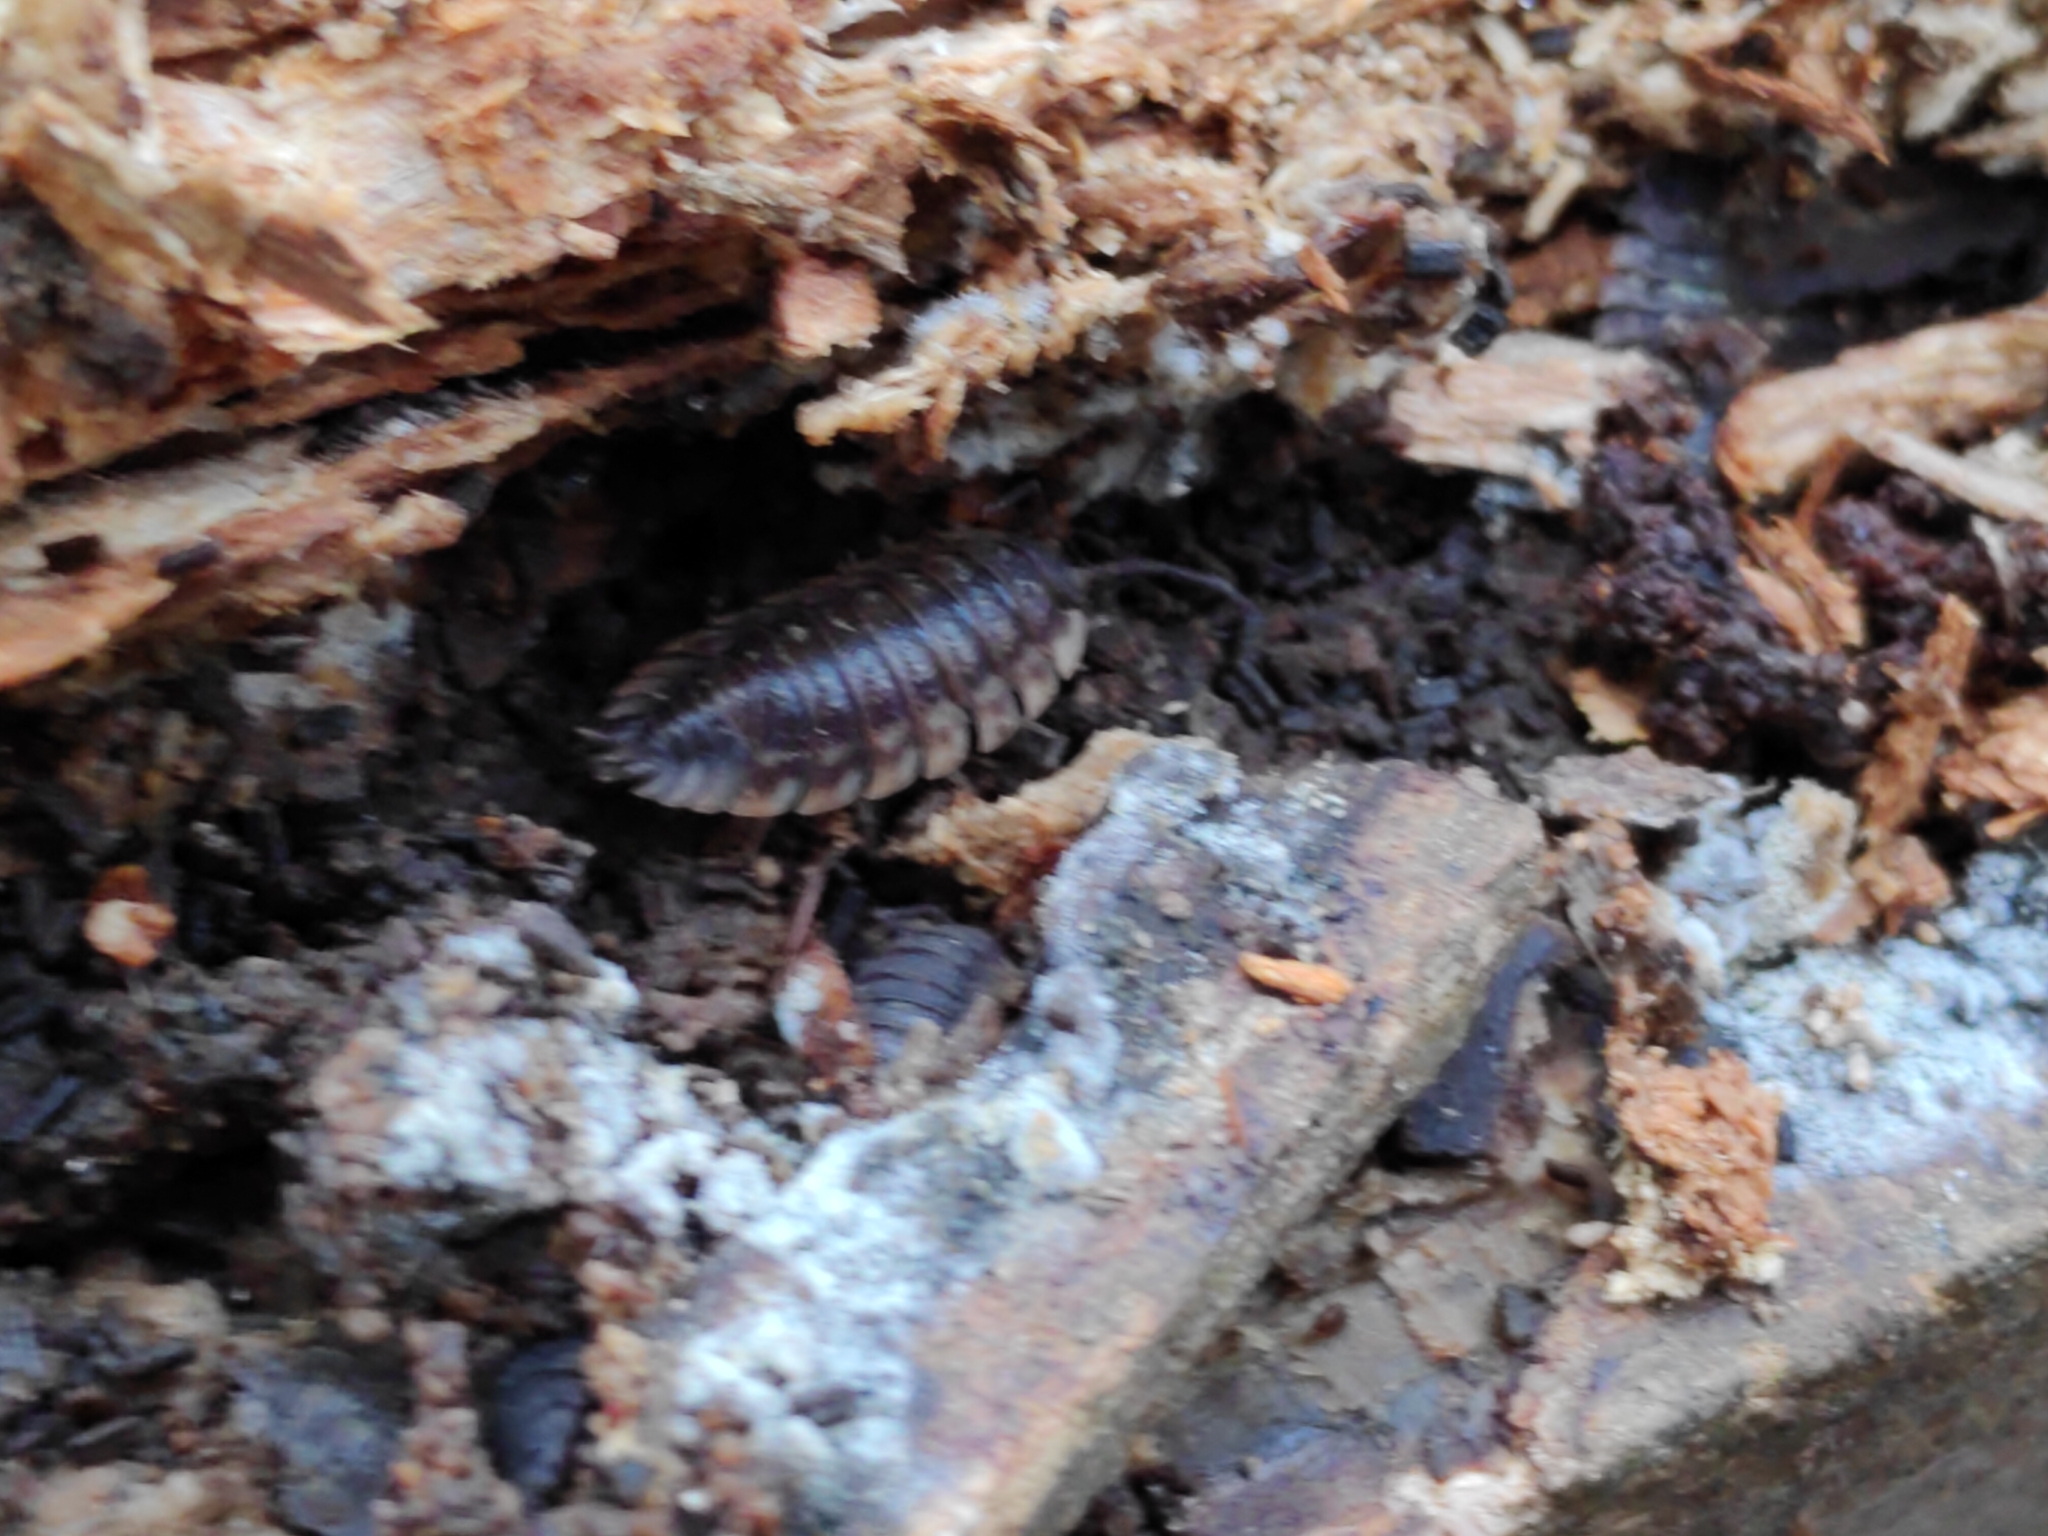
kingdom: Animalia
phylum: Arthropoda
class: Malacostraca
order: Isopoda
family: Oniscidae
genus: Oniscus
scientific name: Oniscus asellus
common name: Common shiny woodlouse
